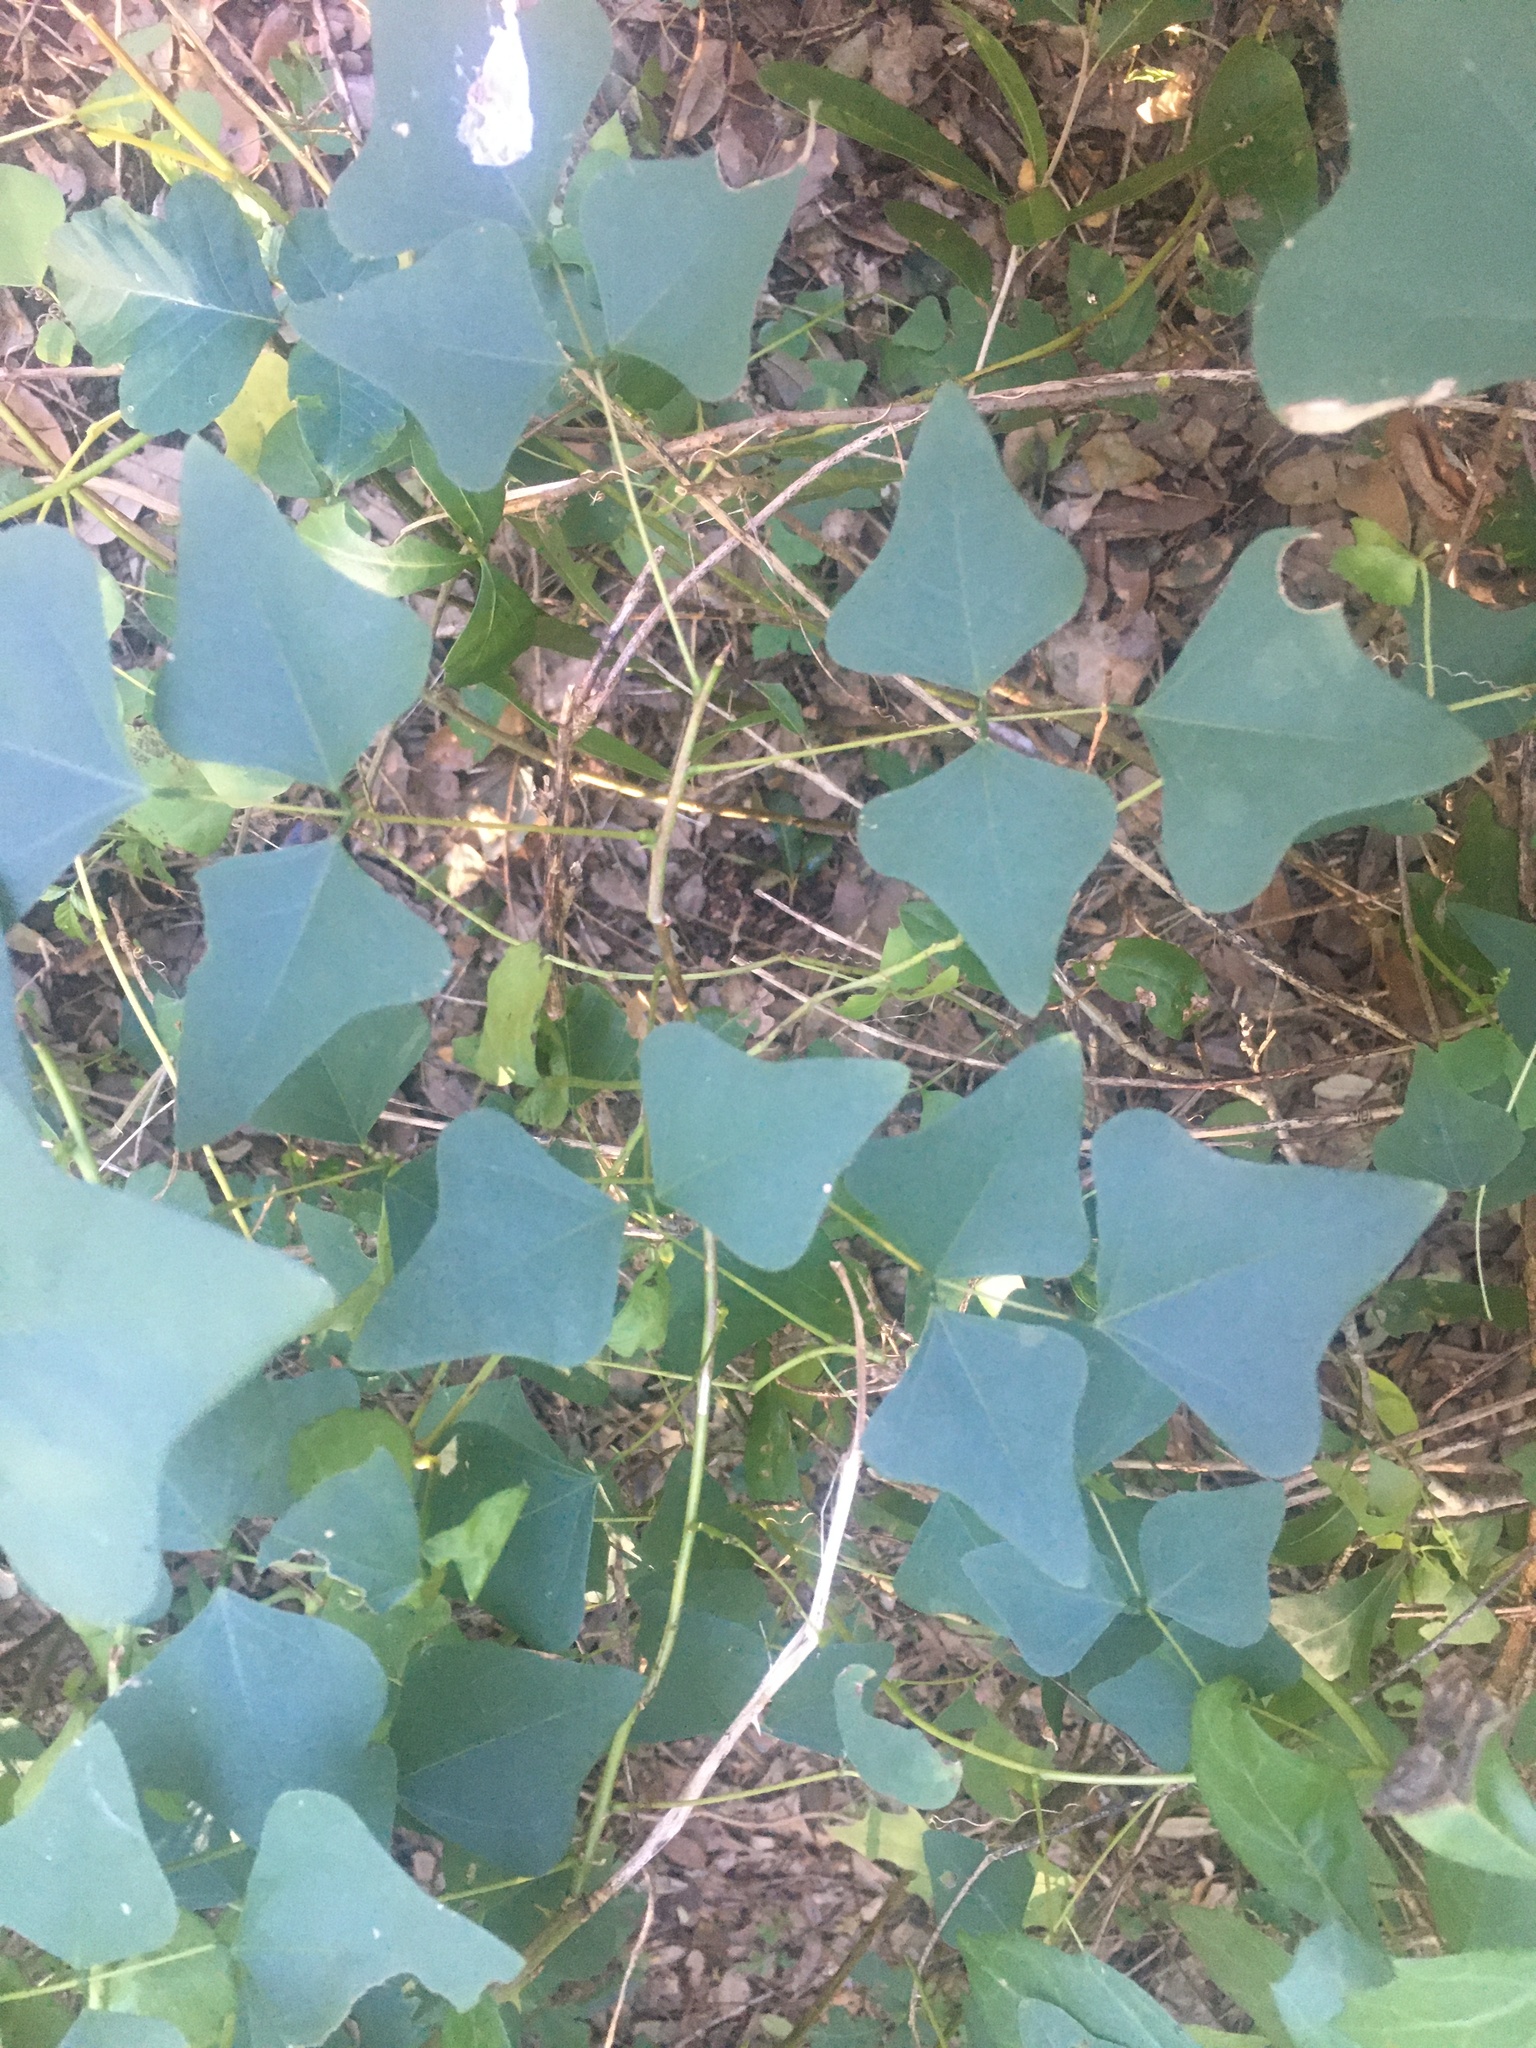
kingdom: Plantae
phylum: Tracheophyta
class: Magnoliopsida
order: Fabales
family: Fabaceae
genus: Erythrina
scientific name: Erythrina herbacea
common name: Coral-bean
